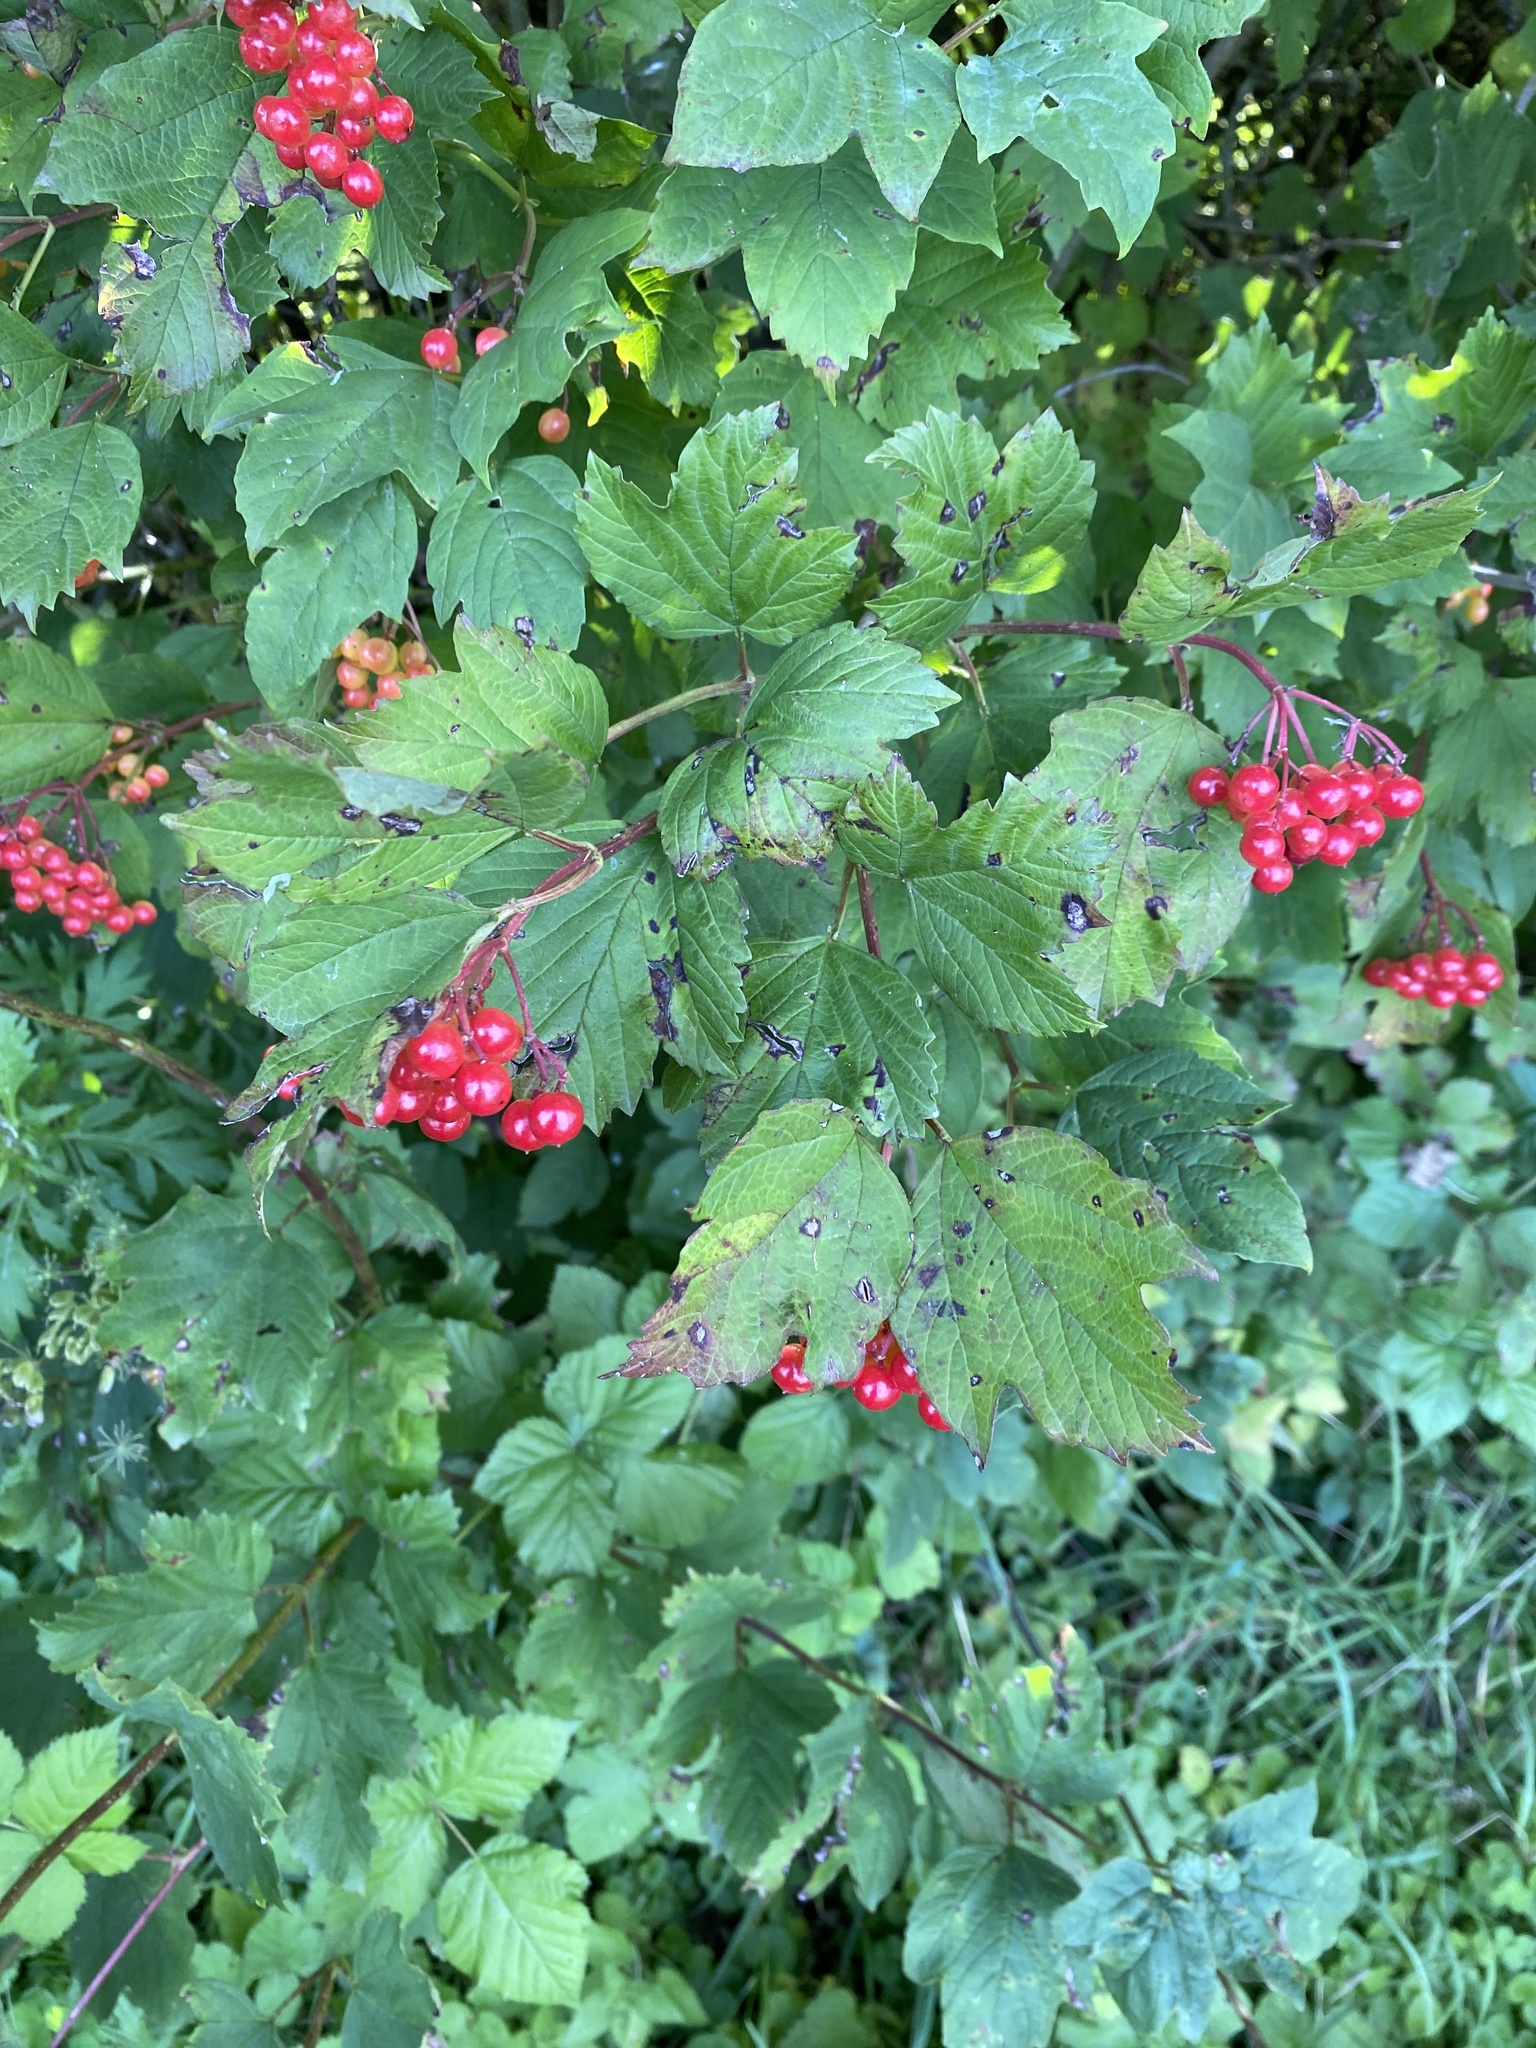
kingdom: Plantae
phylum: Tracheophyta
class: Magnoliopsida
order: Dipsacales
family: Viburnaceae
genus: Viburnum
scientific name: Viburnum opulus
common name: Guelder-rose
